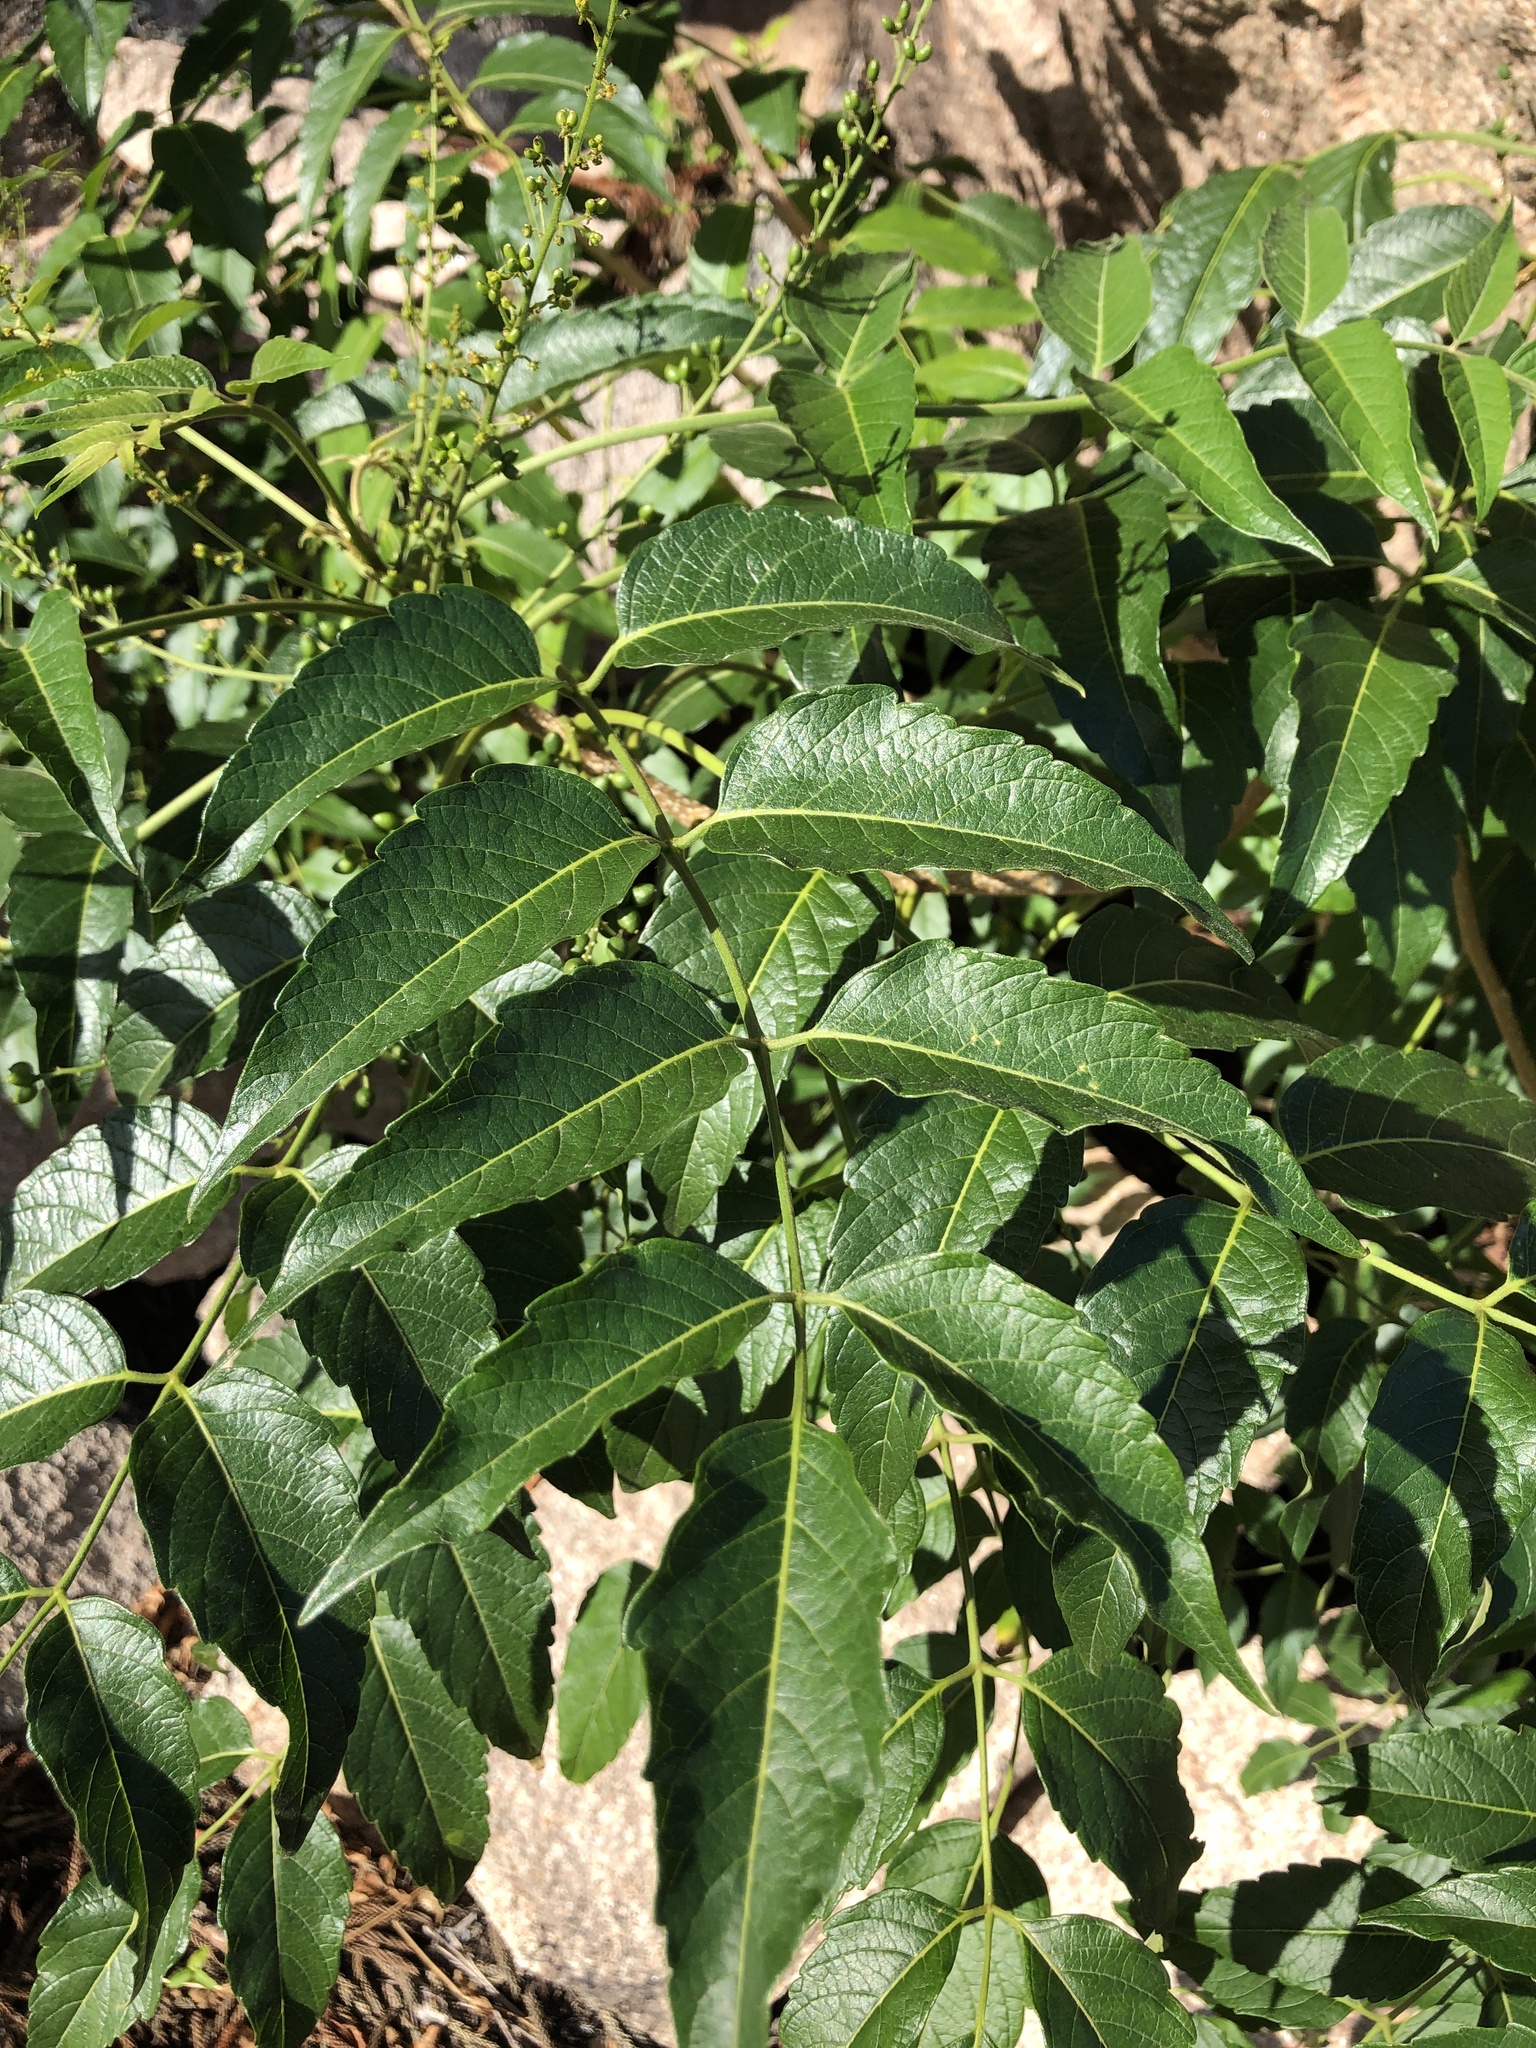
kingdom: Plantae
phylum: Tracheophyta
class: Magnoliopsida
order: Sapindales
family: Burseraceae
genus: Garuga
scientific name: Garuga floribunda
